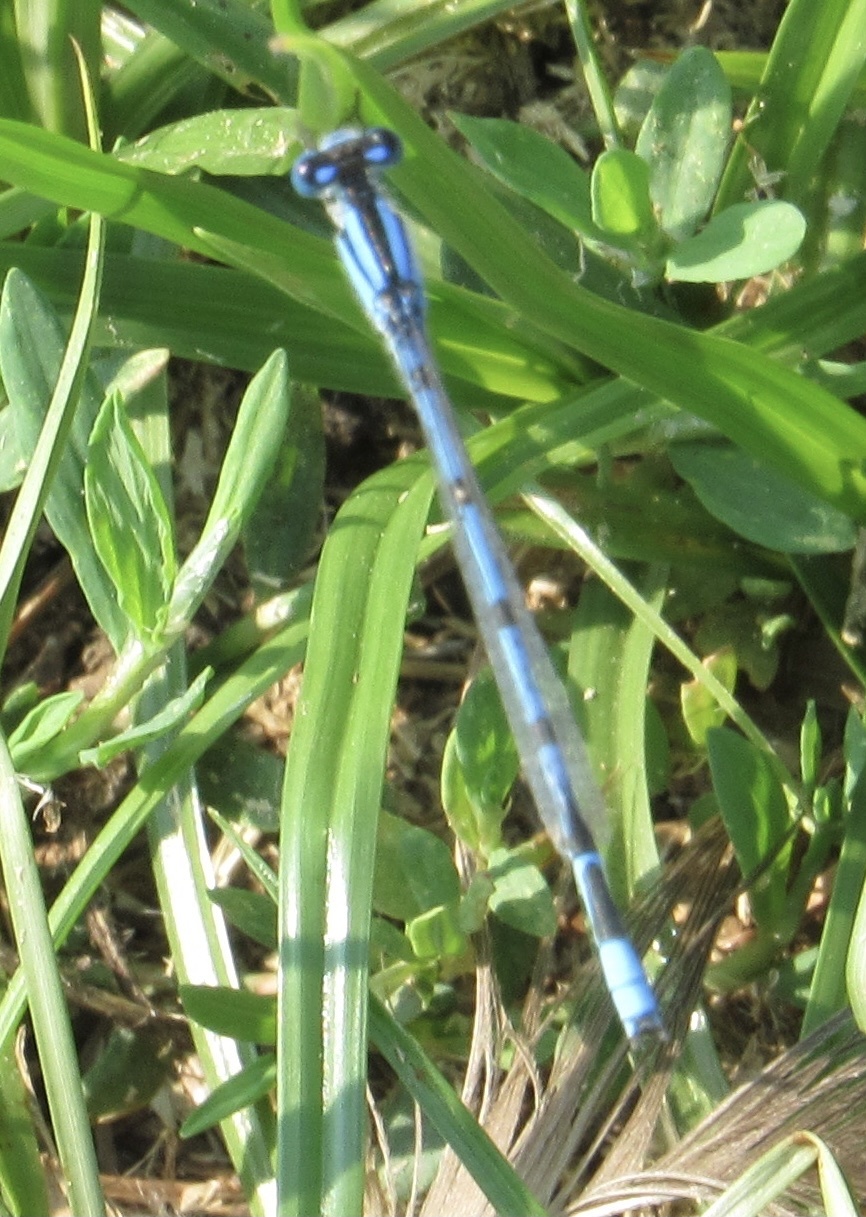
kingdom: Animalia
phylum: Arthropoda
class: Insecta
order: Odonata
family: Coenagrionidae
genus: Enallagma
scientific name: Enallagma civile
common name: Damselfly
